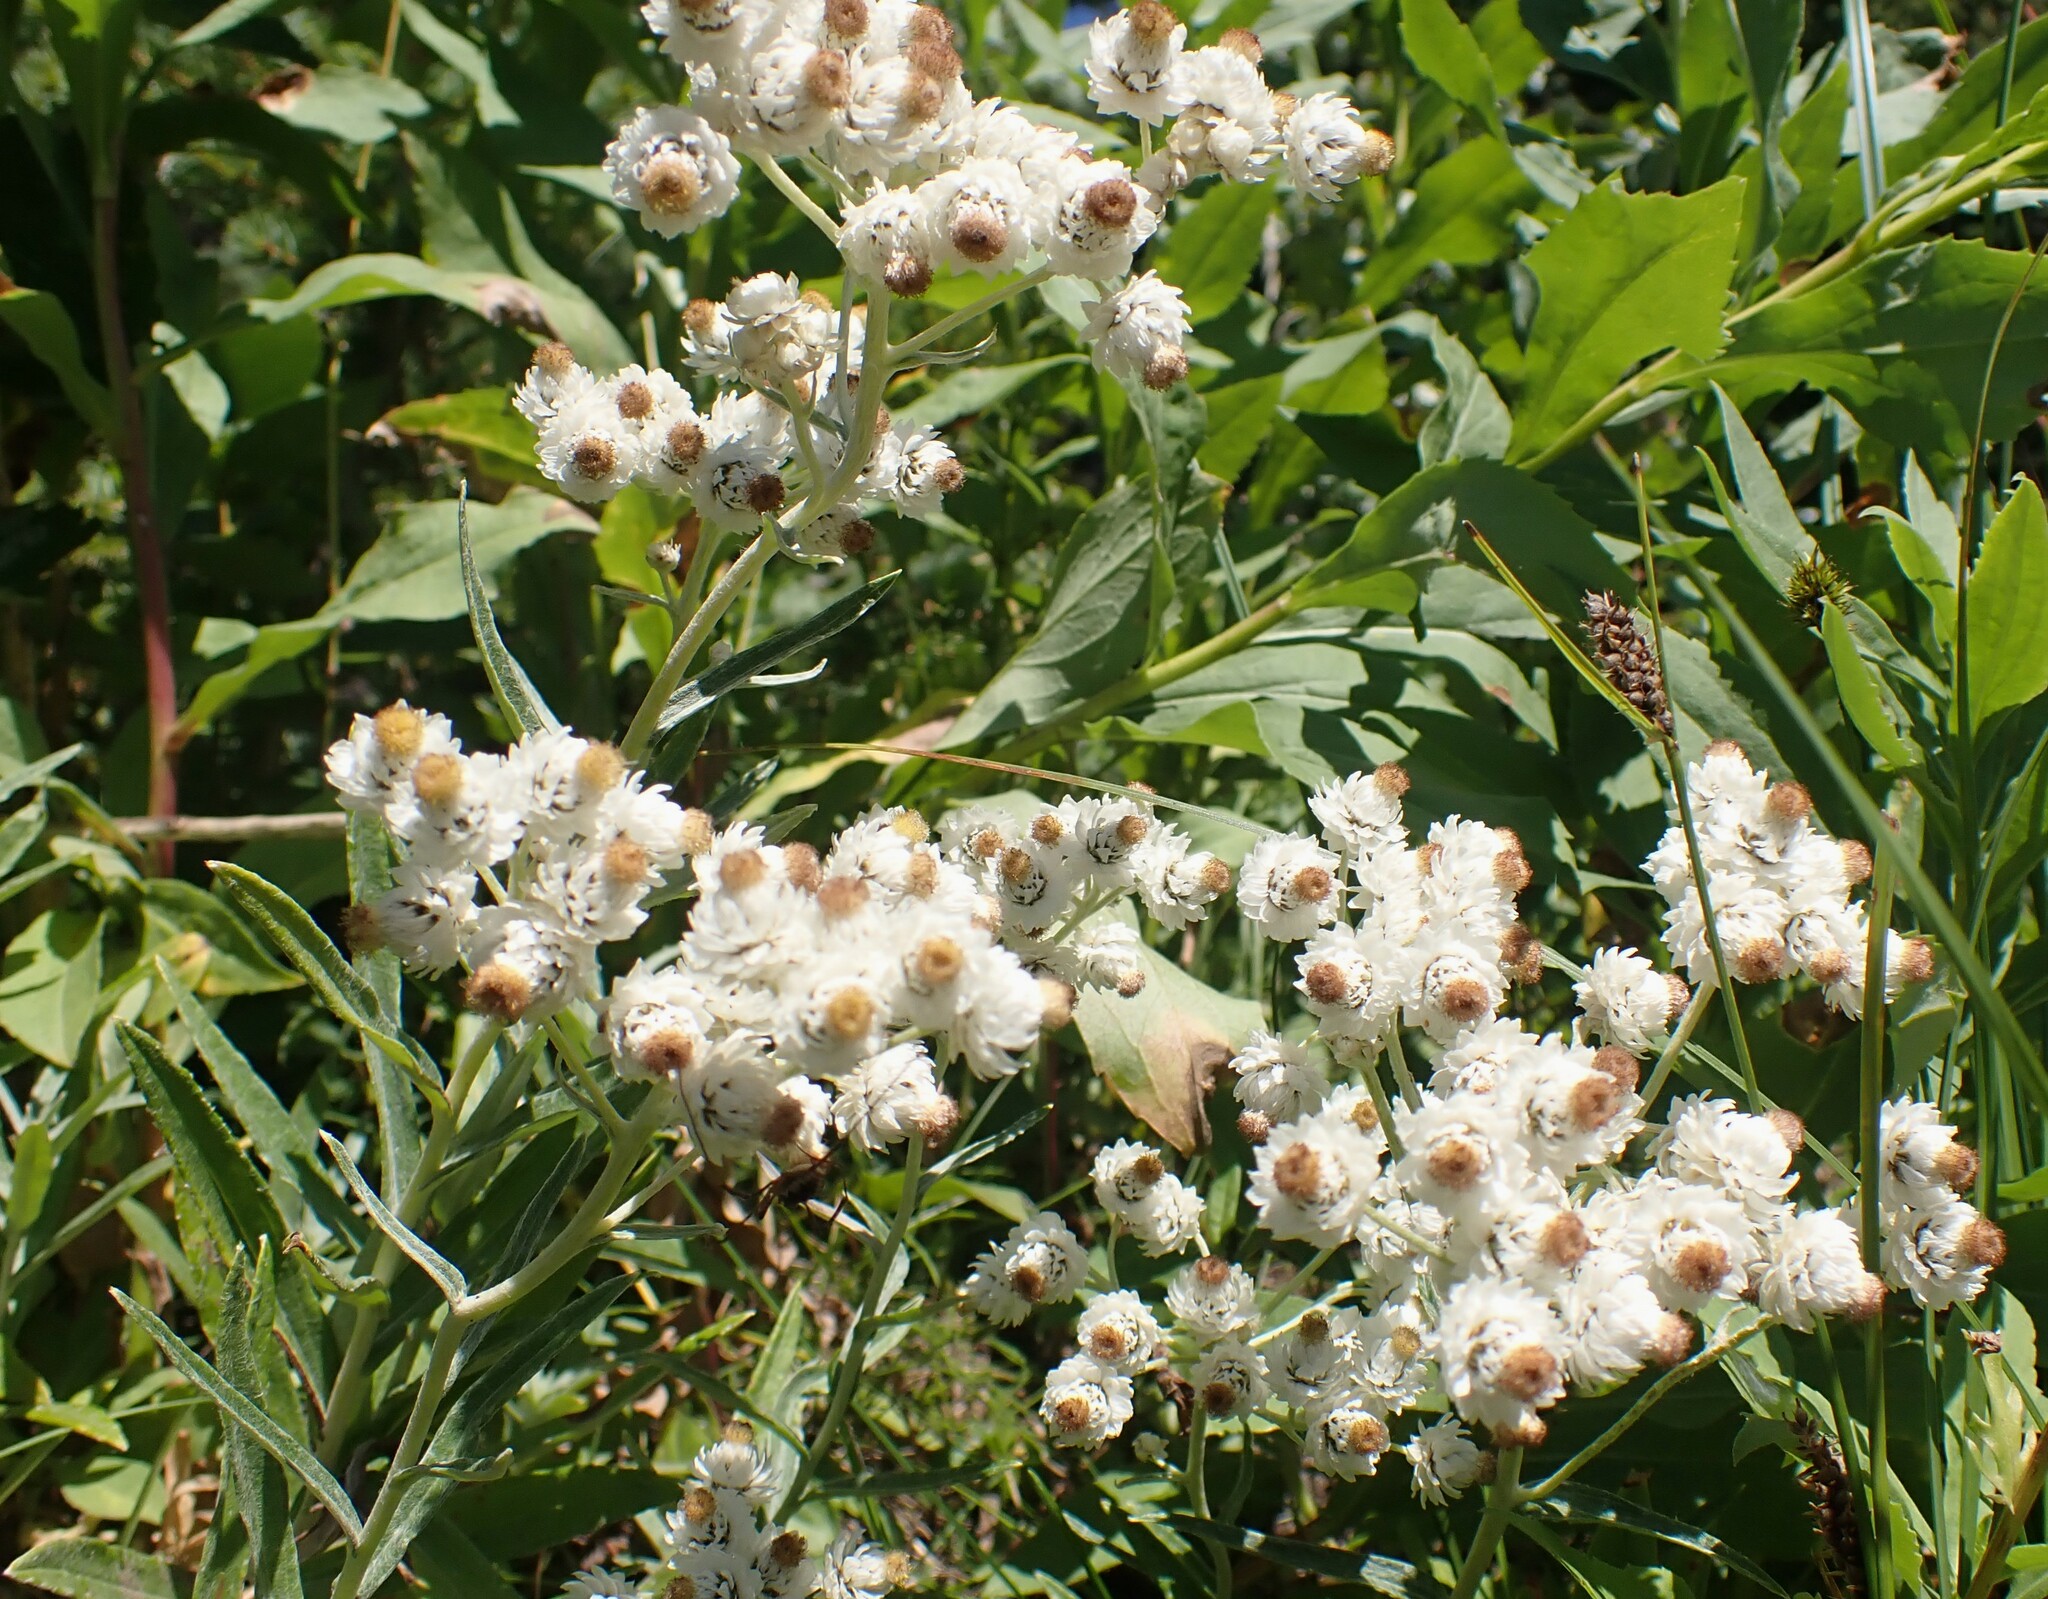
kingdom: Plantae
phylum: Tracheophyta
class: Magnoliopsida
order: Asterales
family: Asteraceae
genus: Anaphalis
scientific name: Anaphalis margaritacea
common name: Pearly everlasting
